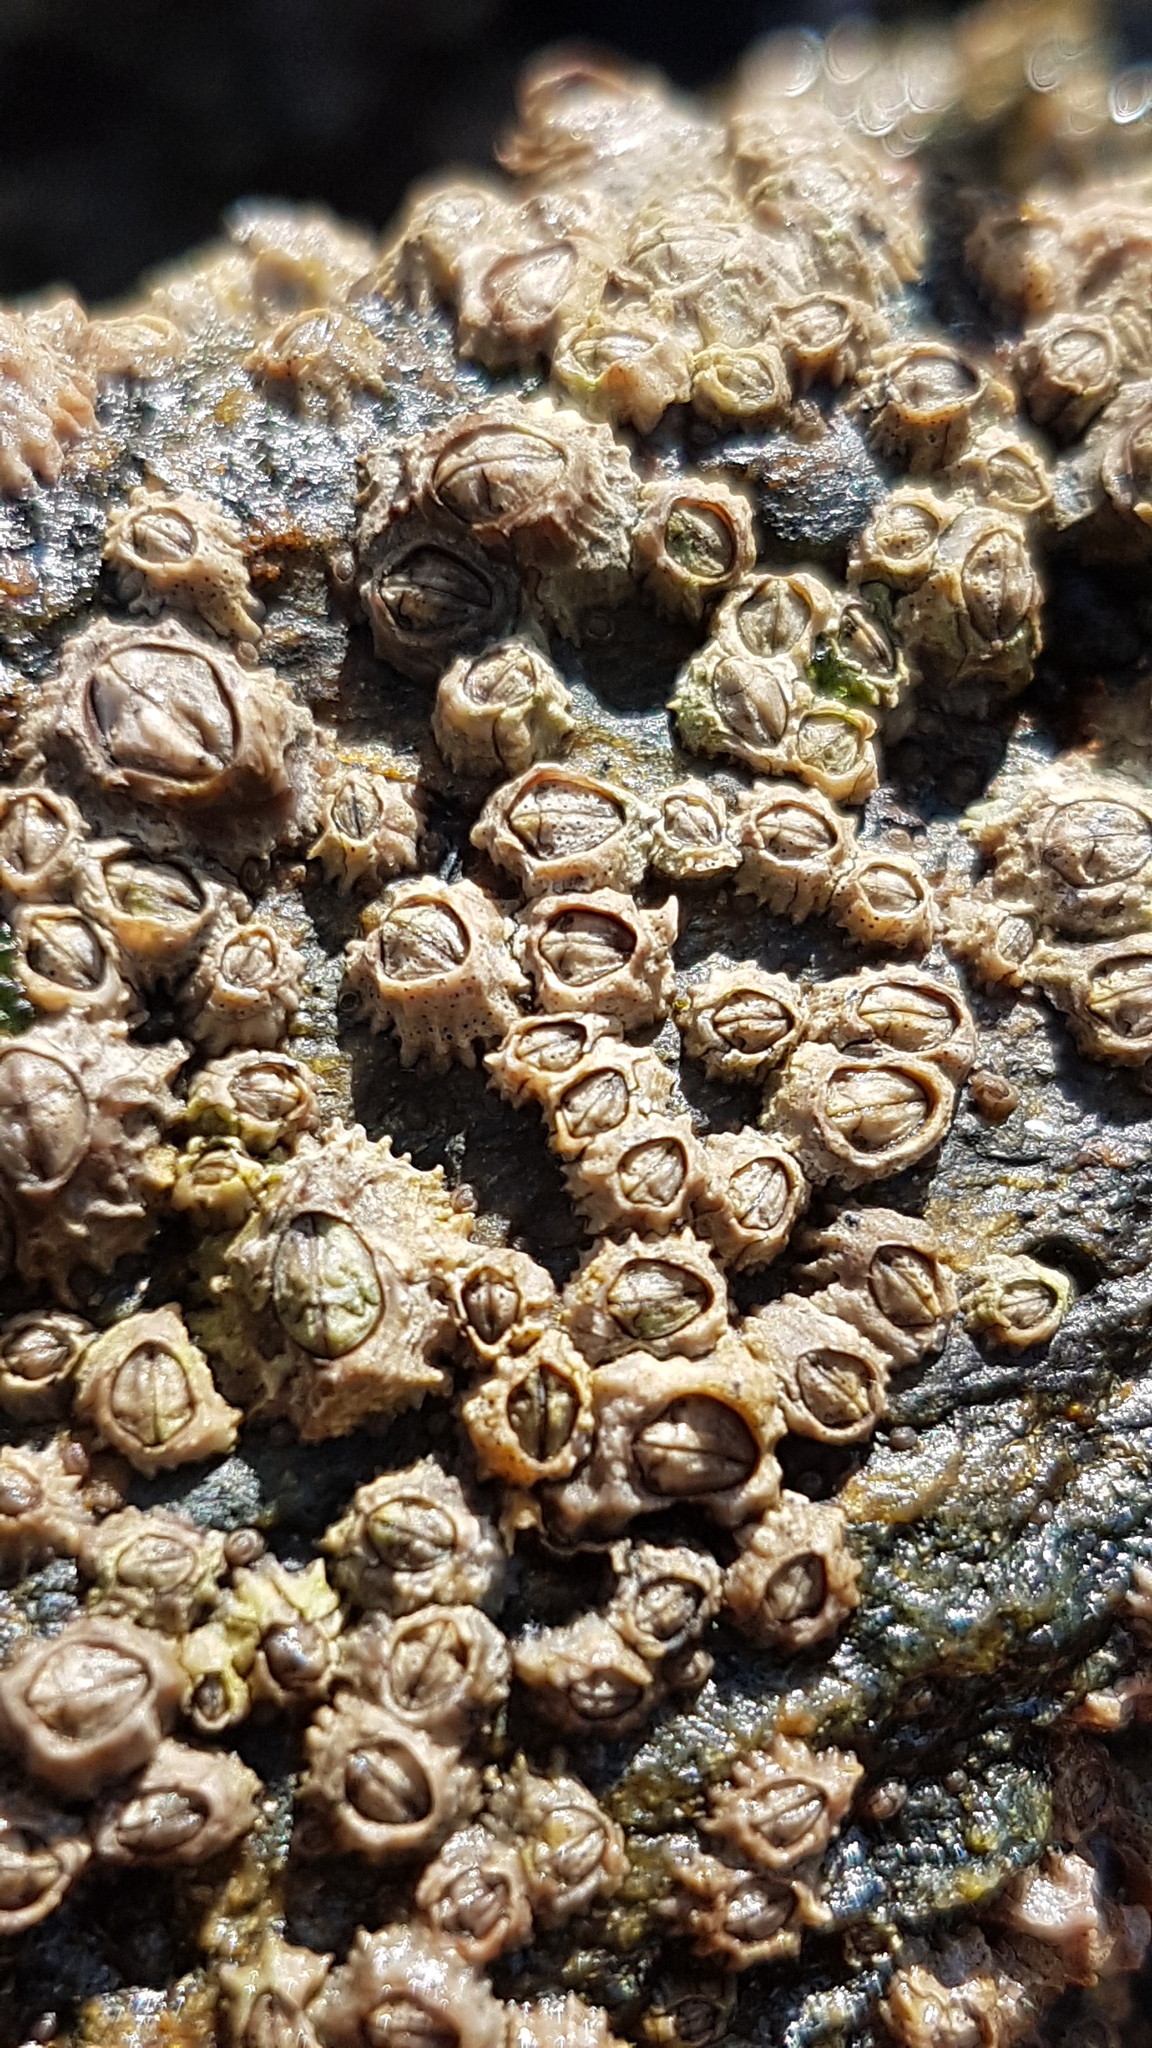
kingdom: Animalia
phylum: Arthropoda
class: Maxillopoda
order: Sessilia
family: Chthamalidae
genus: Chthamalus
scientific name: Chthamalus montagui
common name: Montagu's stellate barnacle
